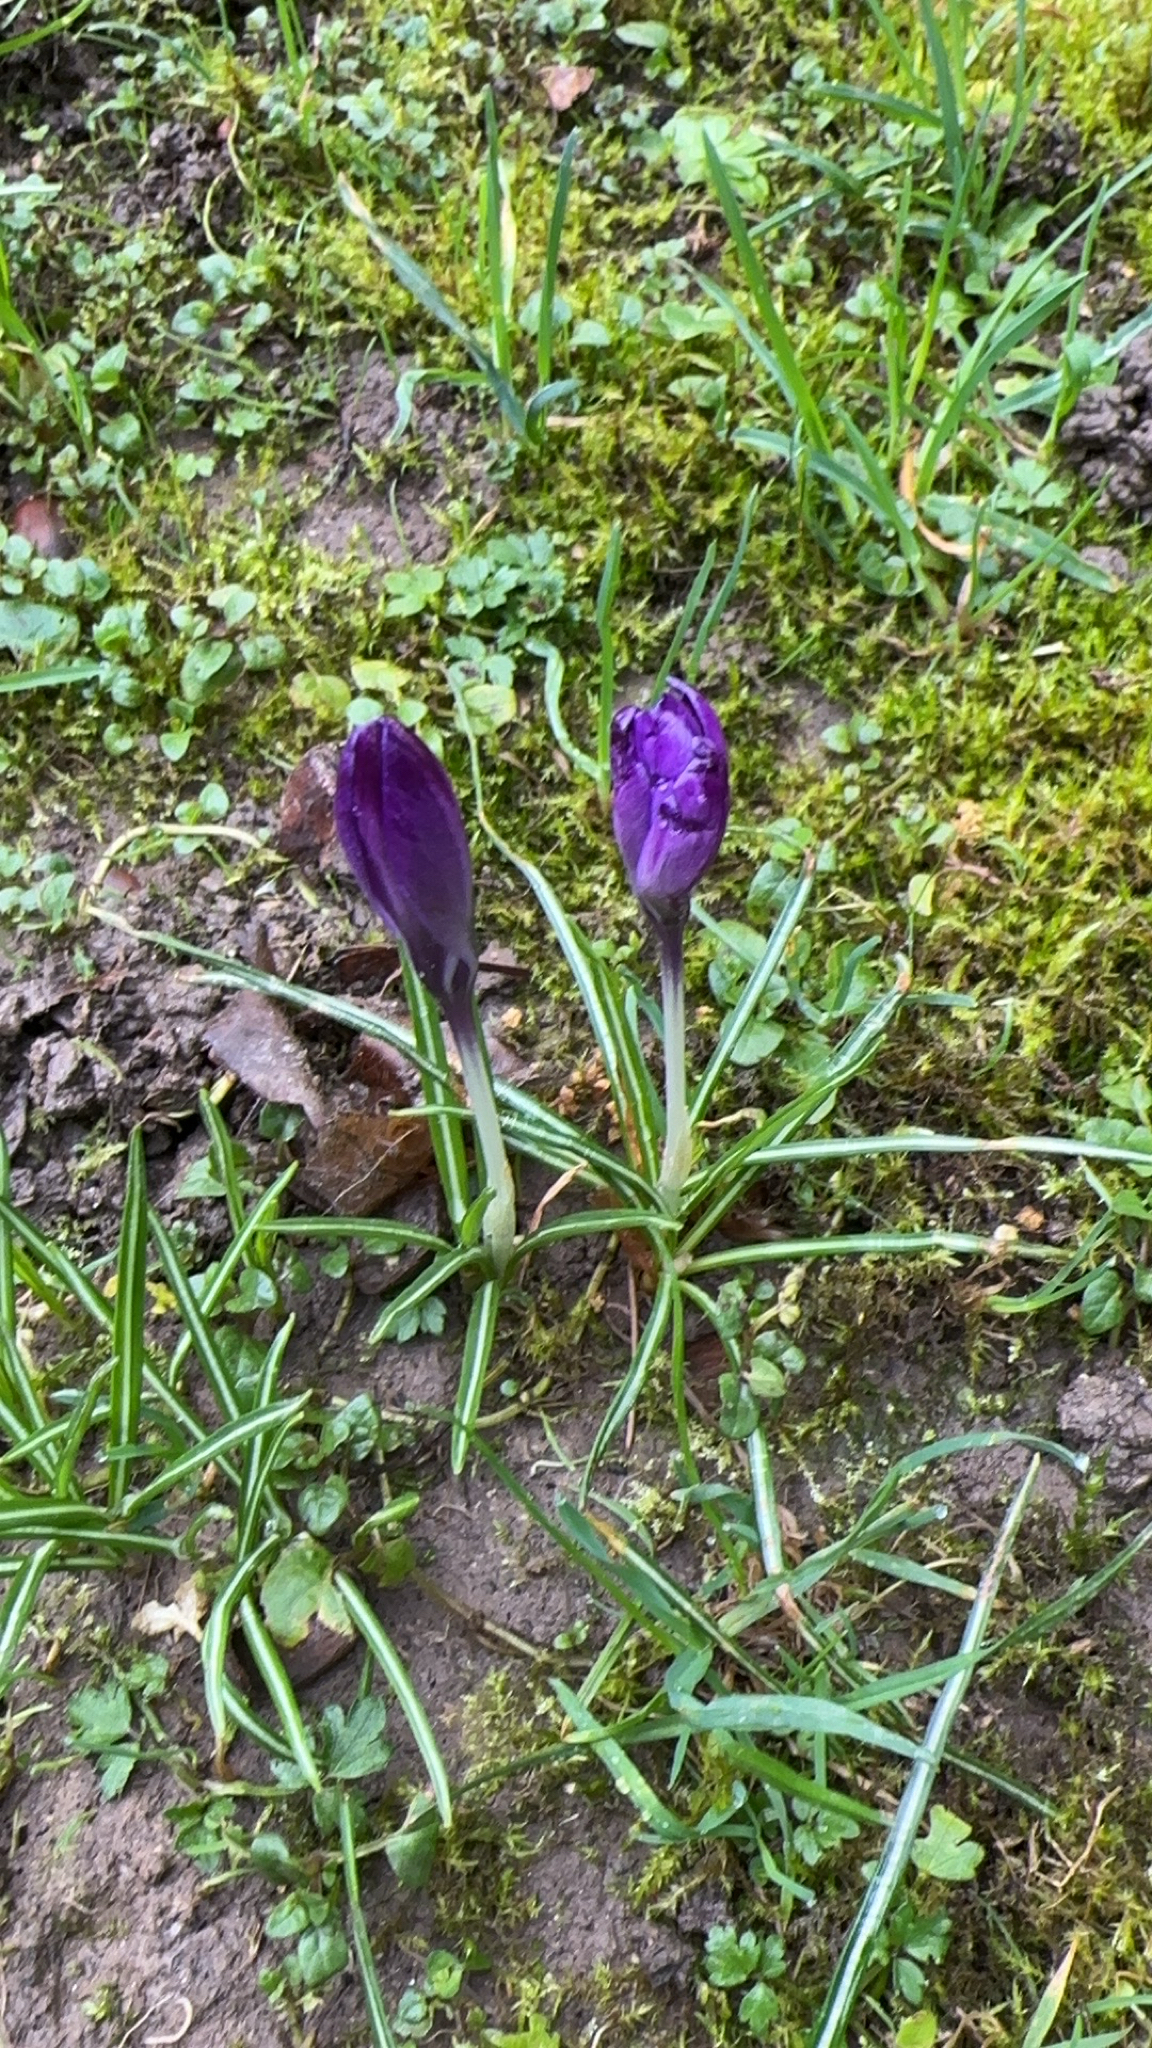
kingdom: Plantae
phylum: Tracheophyta
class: Liliopsida
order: Asparagales
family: Iridaceae
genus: Crocus
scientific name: Crocus vernus
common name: Spring crocus
